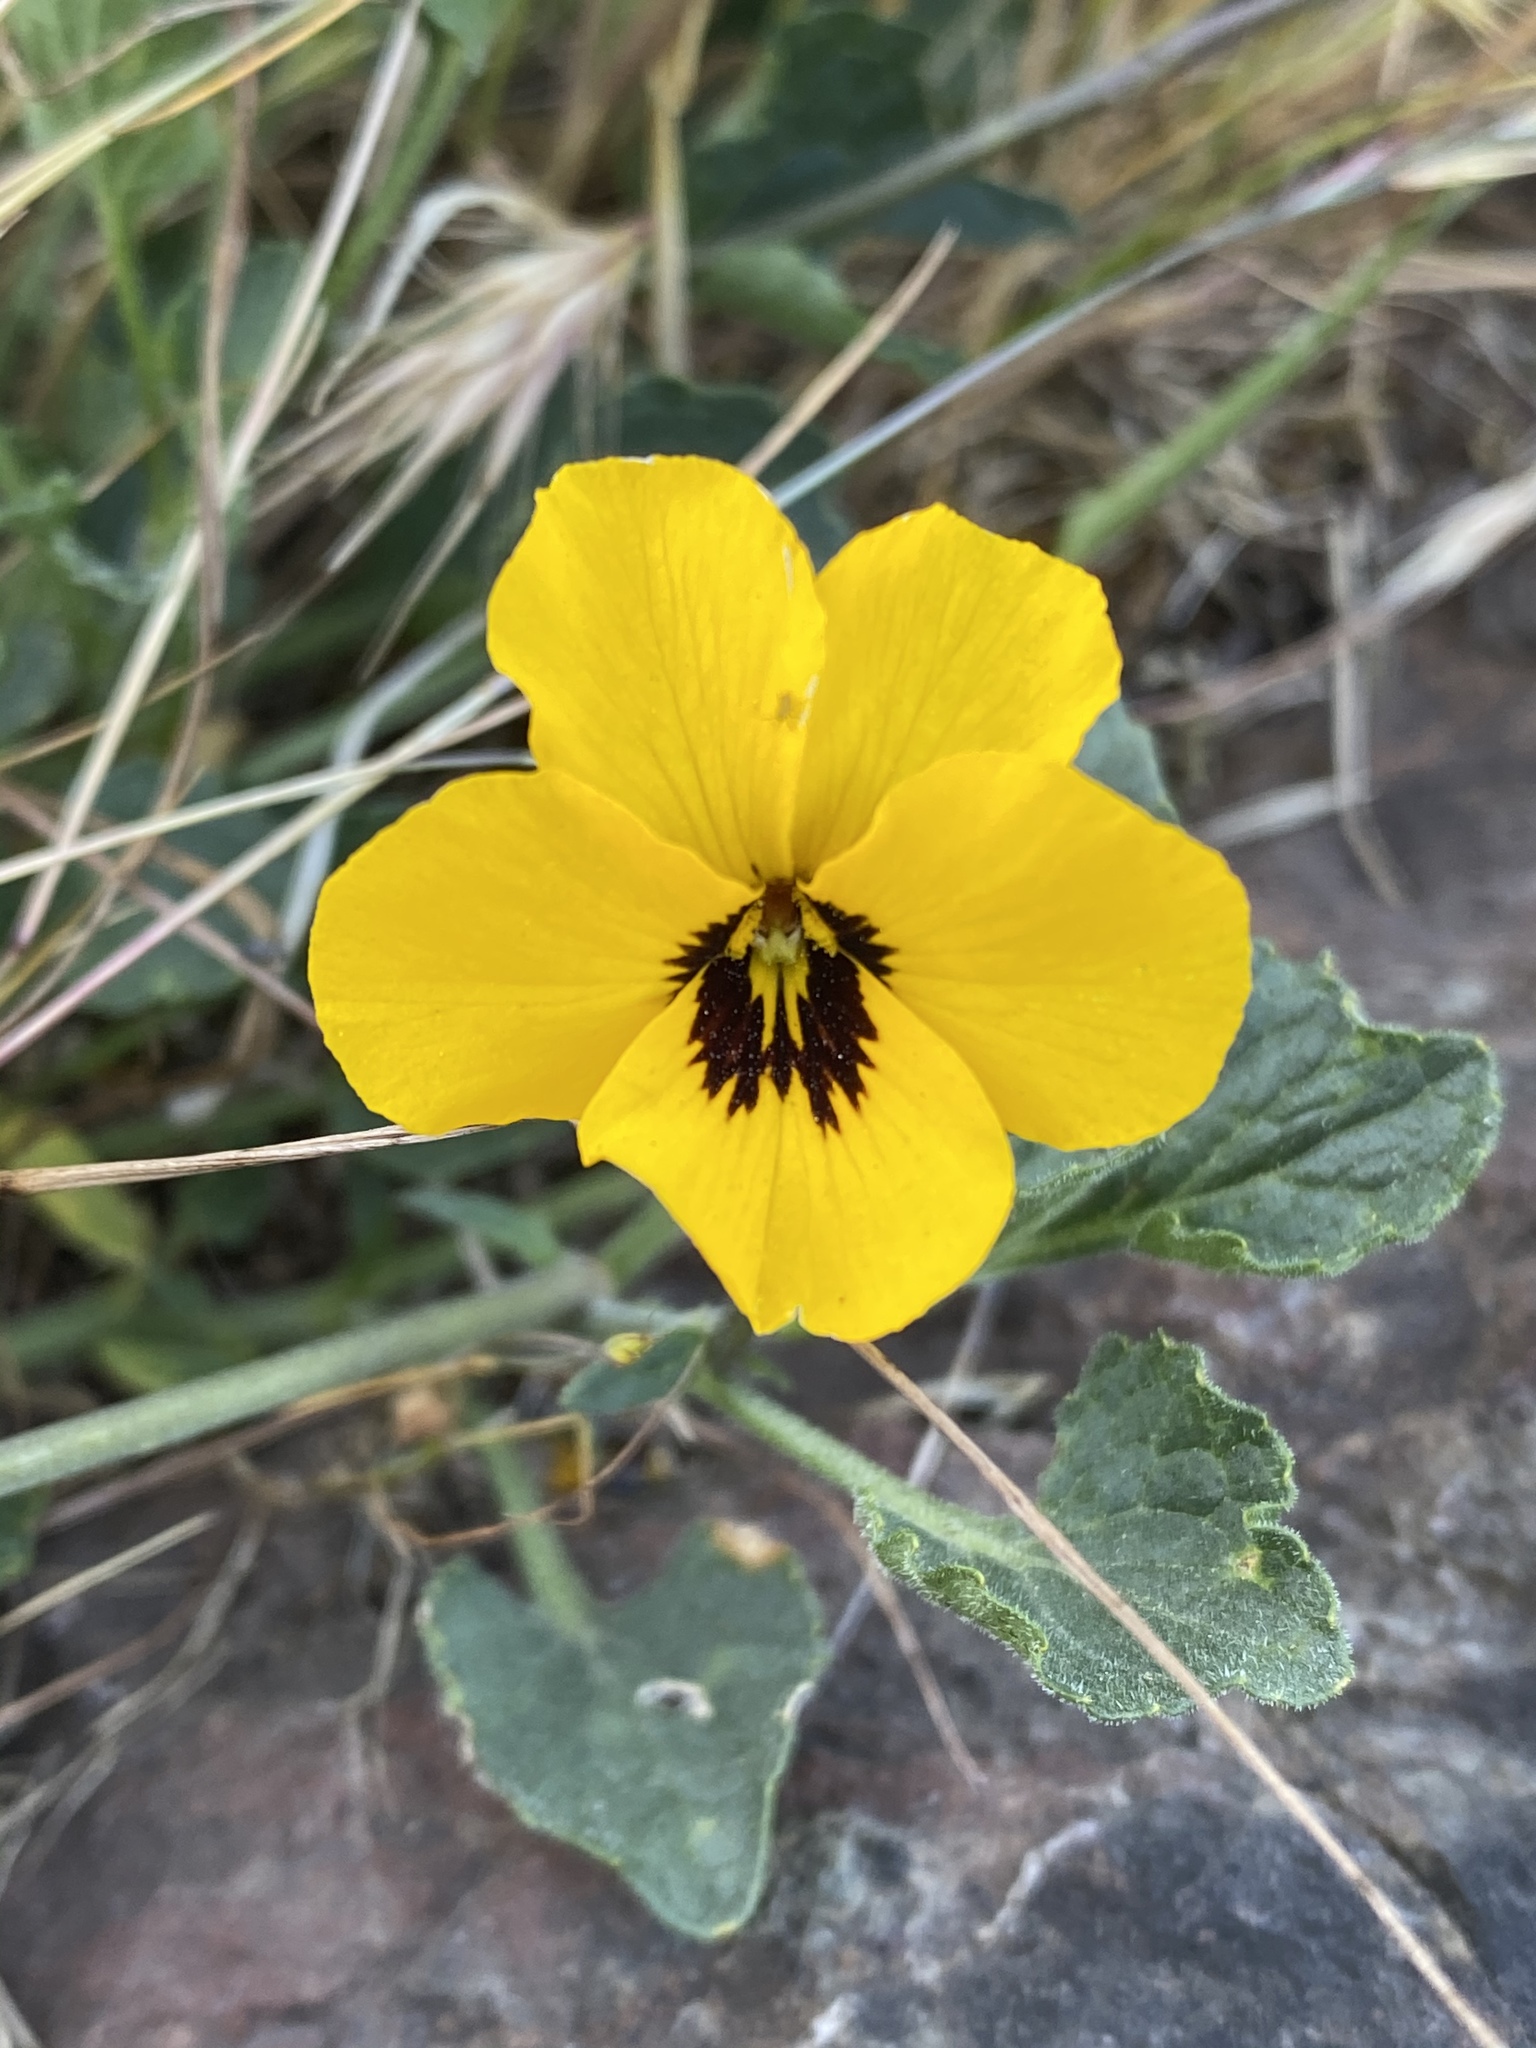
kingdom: Plantae
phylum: Tracheophyta
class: Magnoliopsida
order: Malpighiales
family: Violaceae
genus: Viola
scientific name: Viola pedunculata
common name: California golden violet
